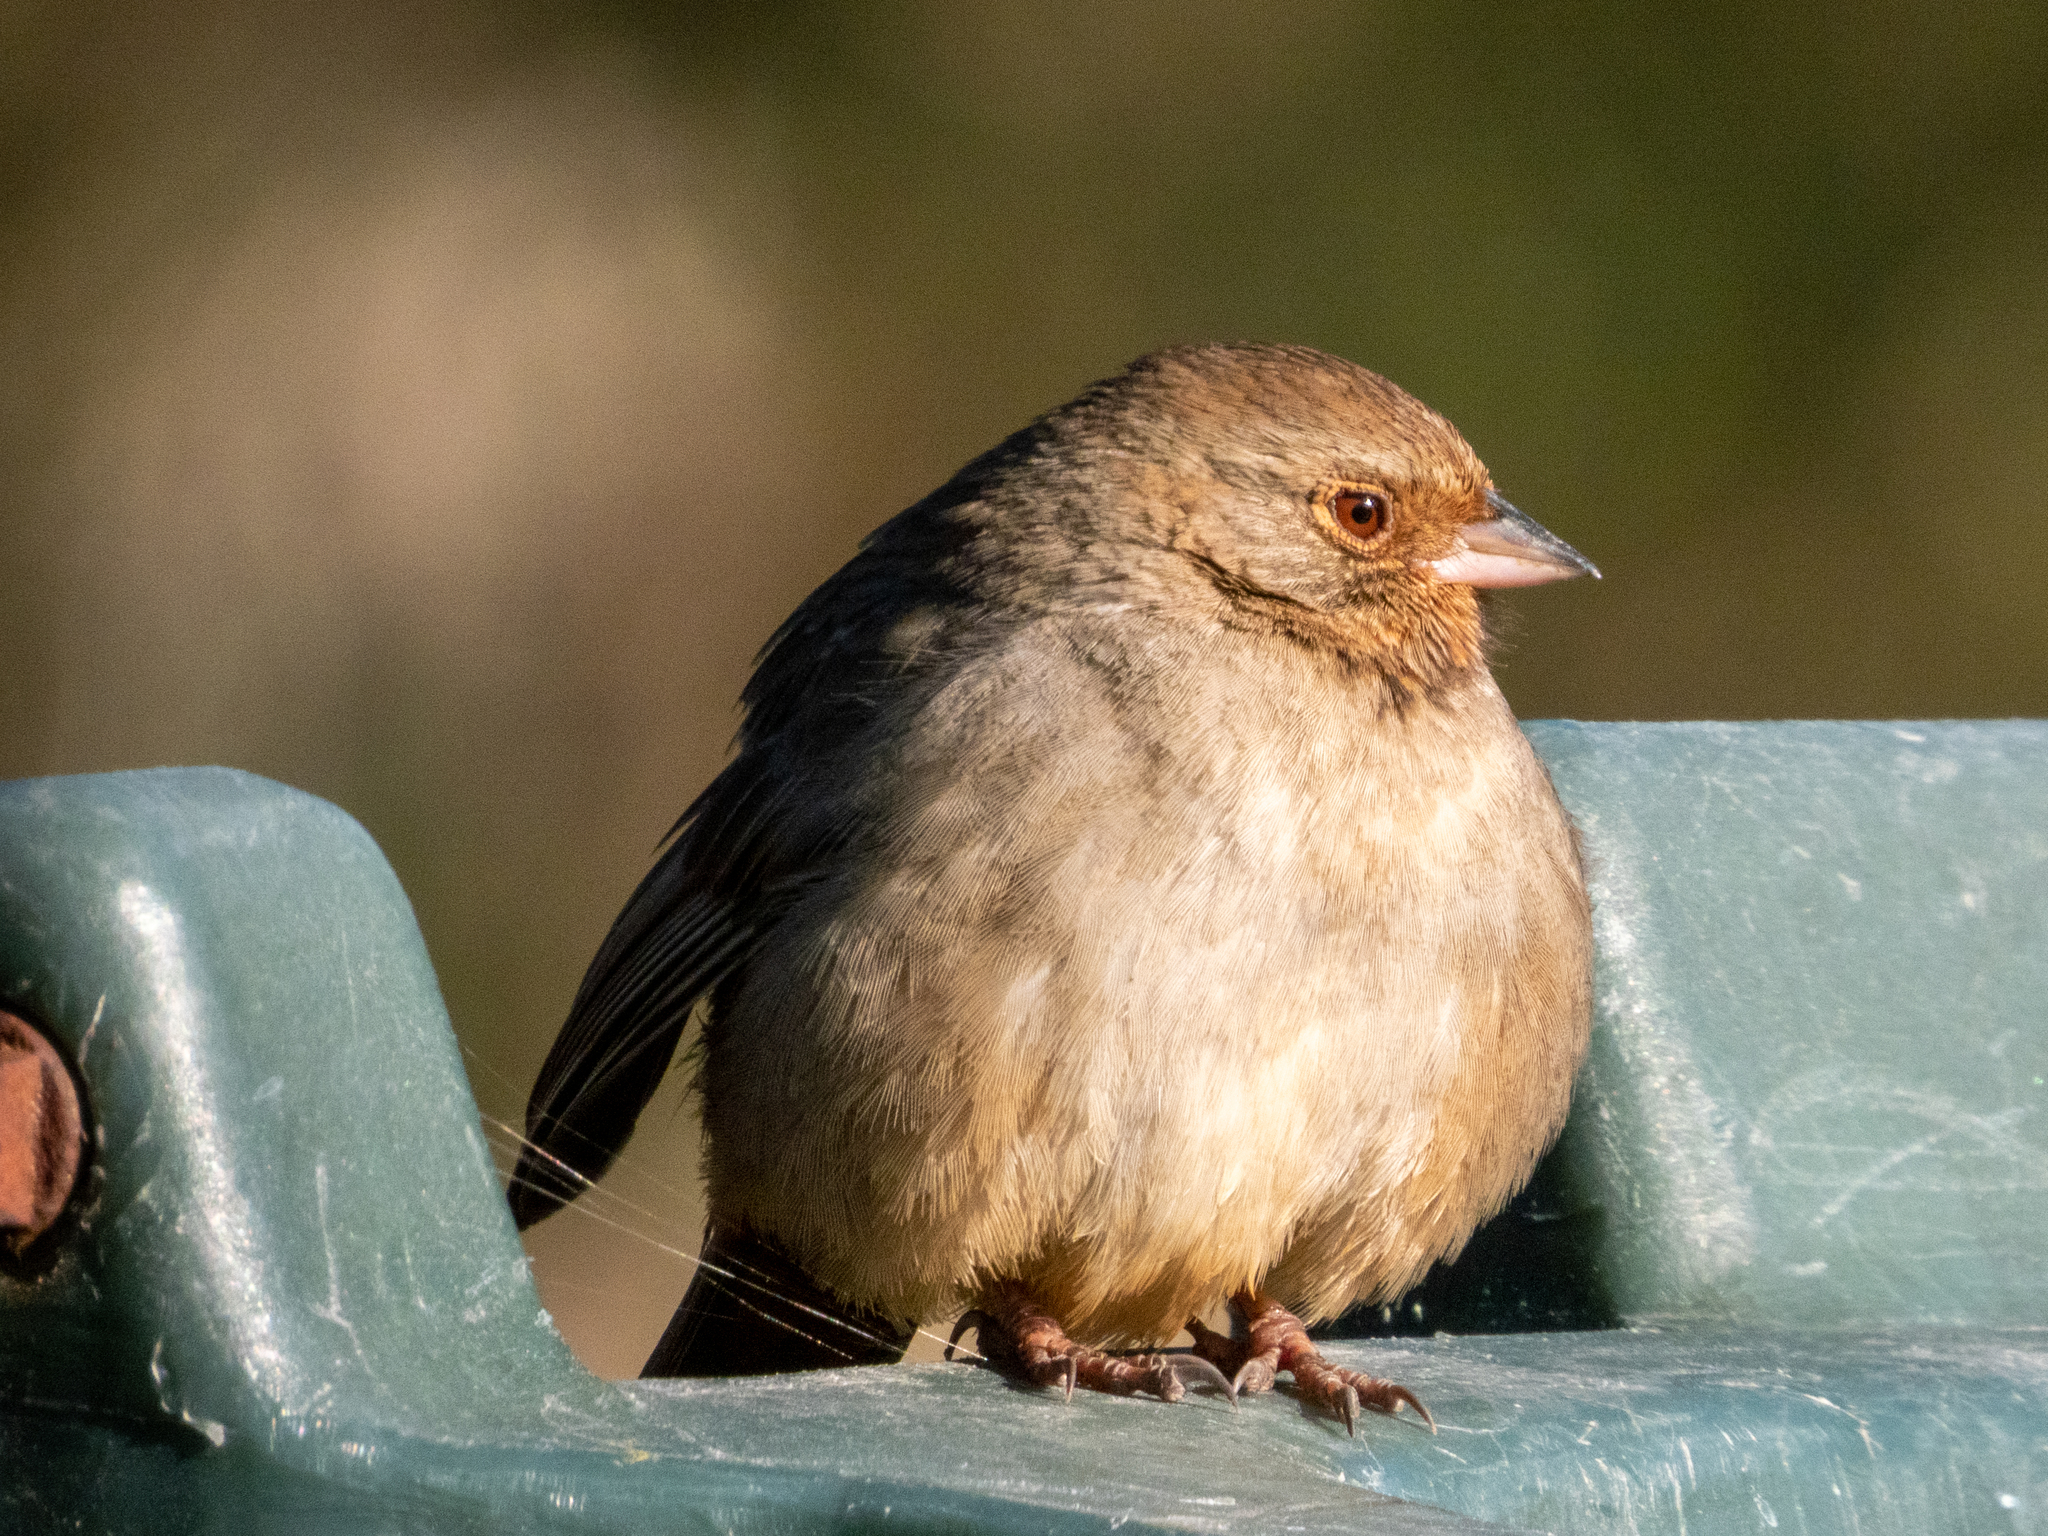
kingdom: Animalia
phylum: Chordata
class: Aves
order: Passeriformes
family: Passerellidae
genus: Melozone
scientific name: Melozone crissalis
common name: California towhee
